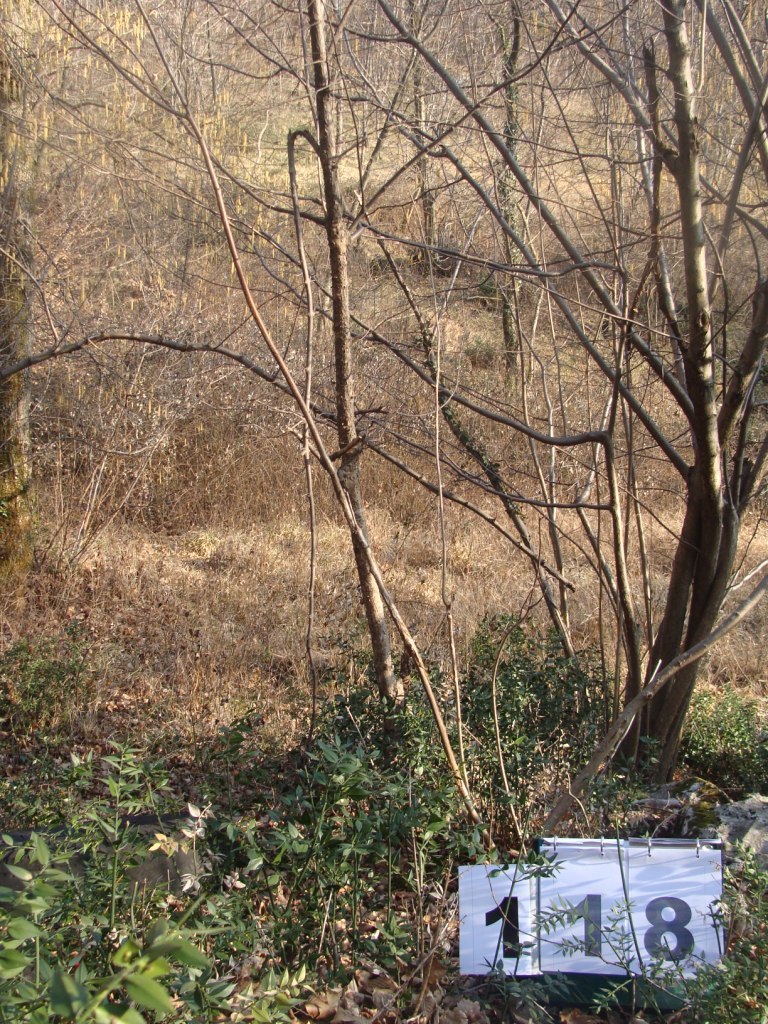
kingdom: Plantae
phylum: Tracheophyta
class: Magnoliopsida
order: Cornales
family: Cornaceae
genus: Cornus
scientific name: Cornus mas
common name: Cornelian-cherry
